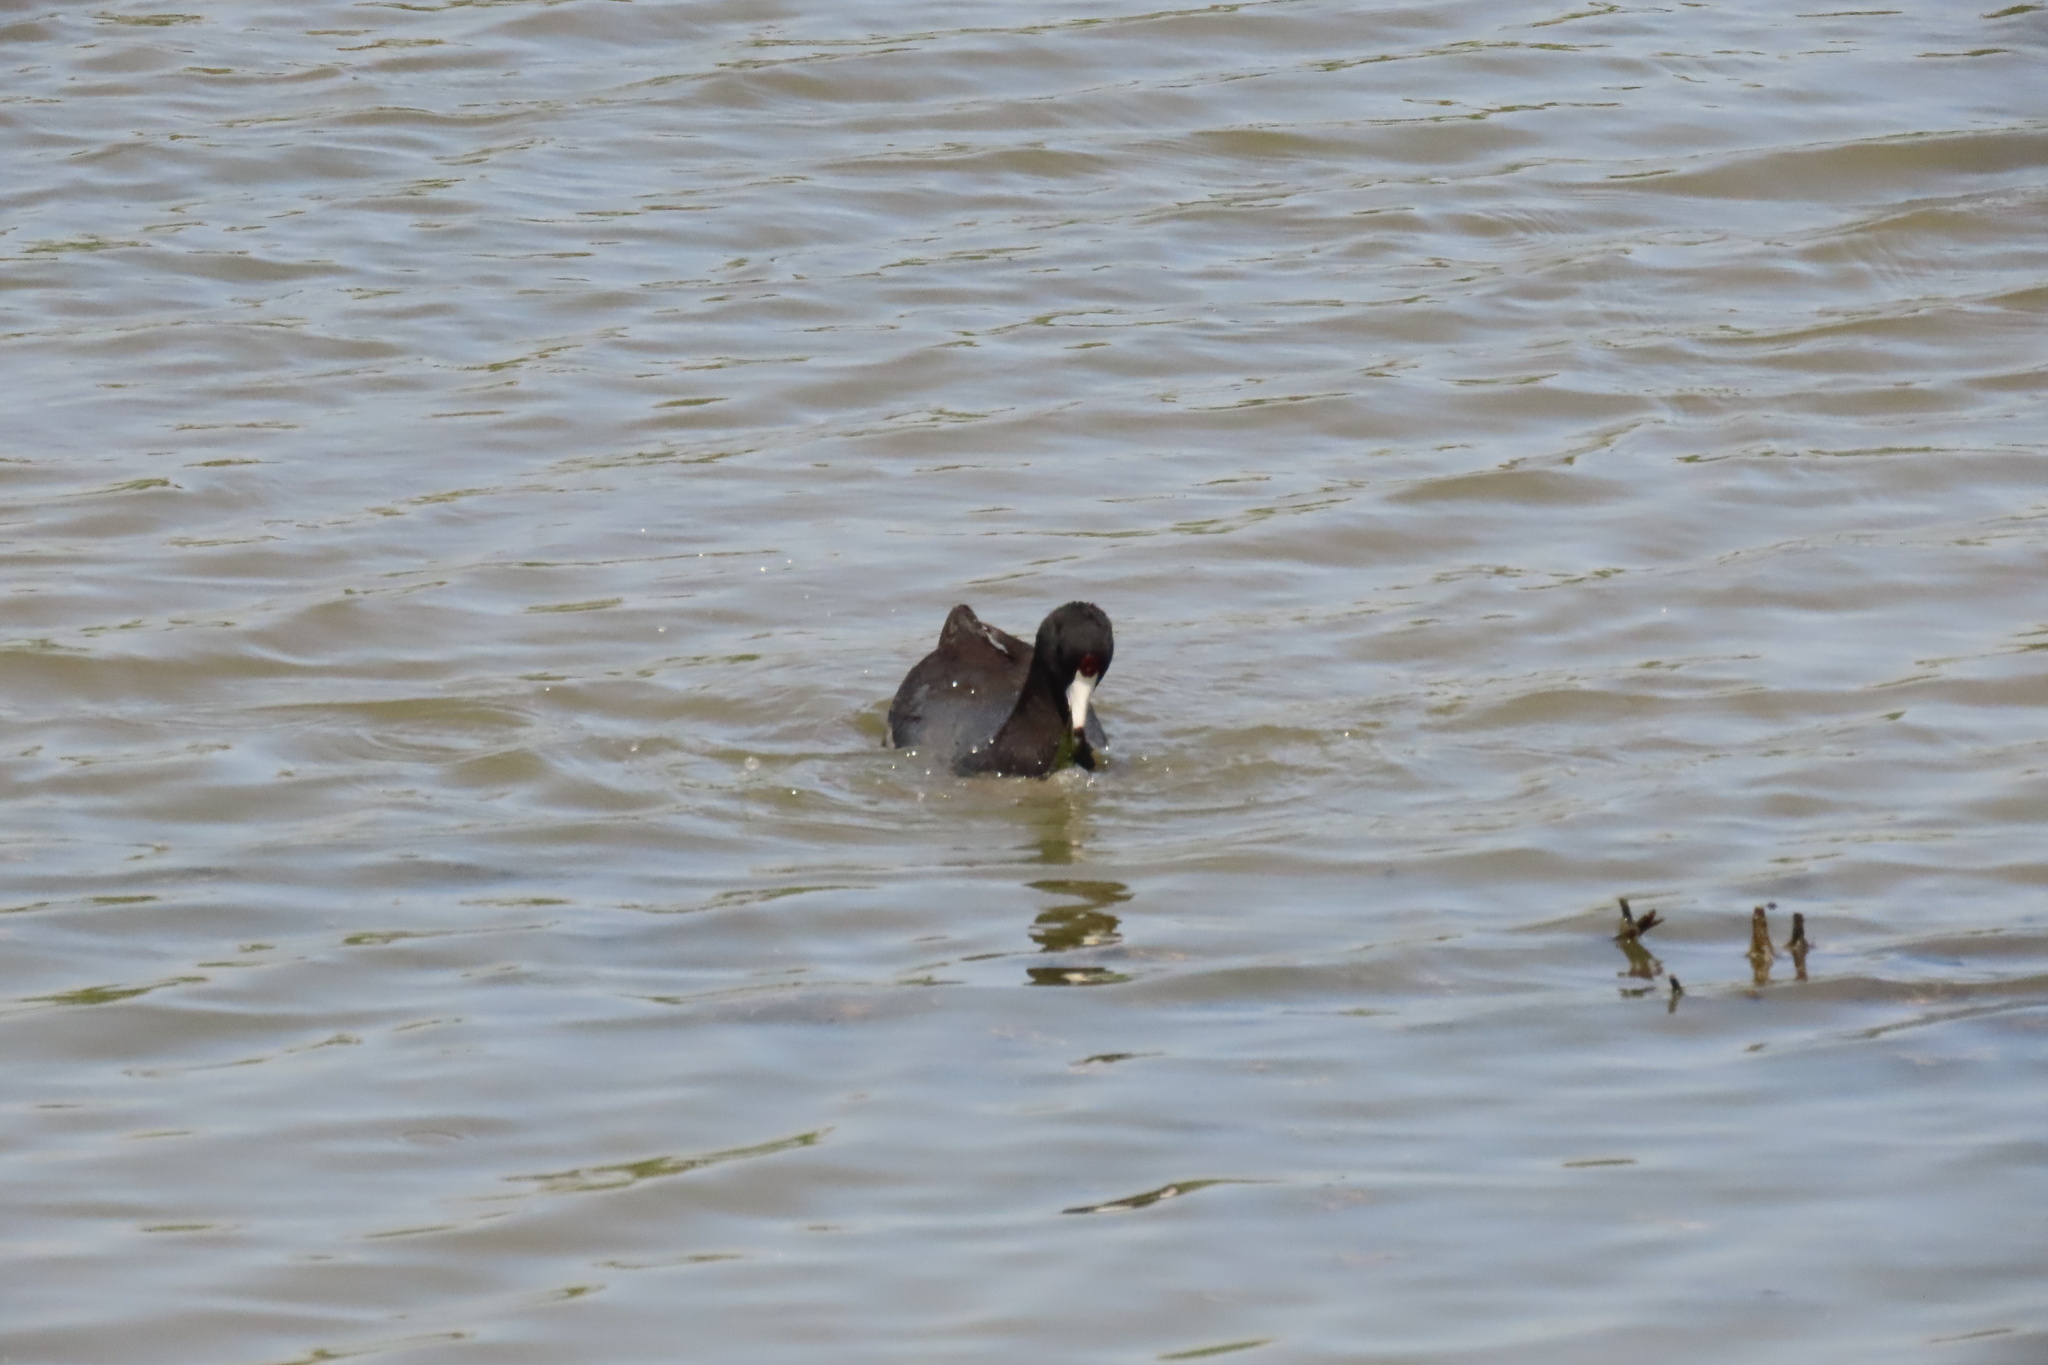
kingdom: Animalia
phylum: Chordata
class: Aves
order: Gruiformes
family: Rallidae
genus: Fulica
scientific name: Fulica americana
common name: American coot
